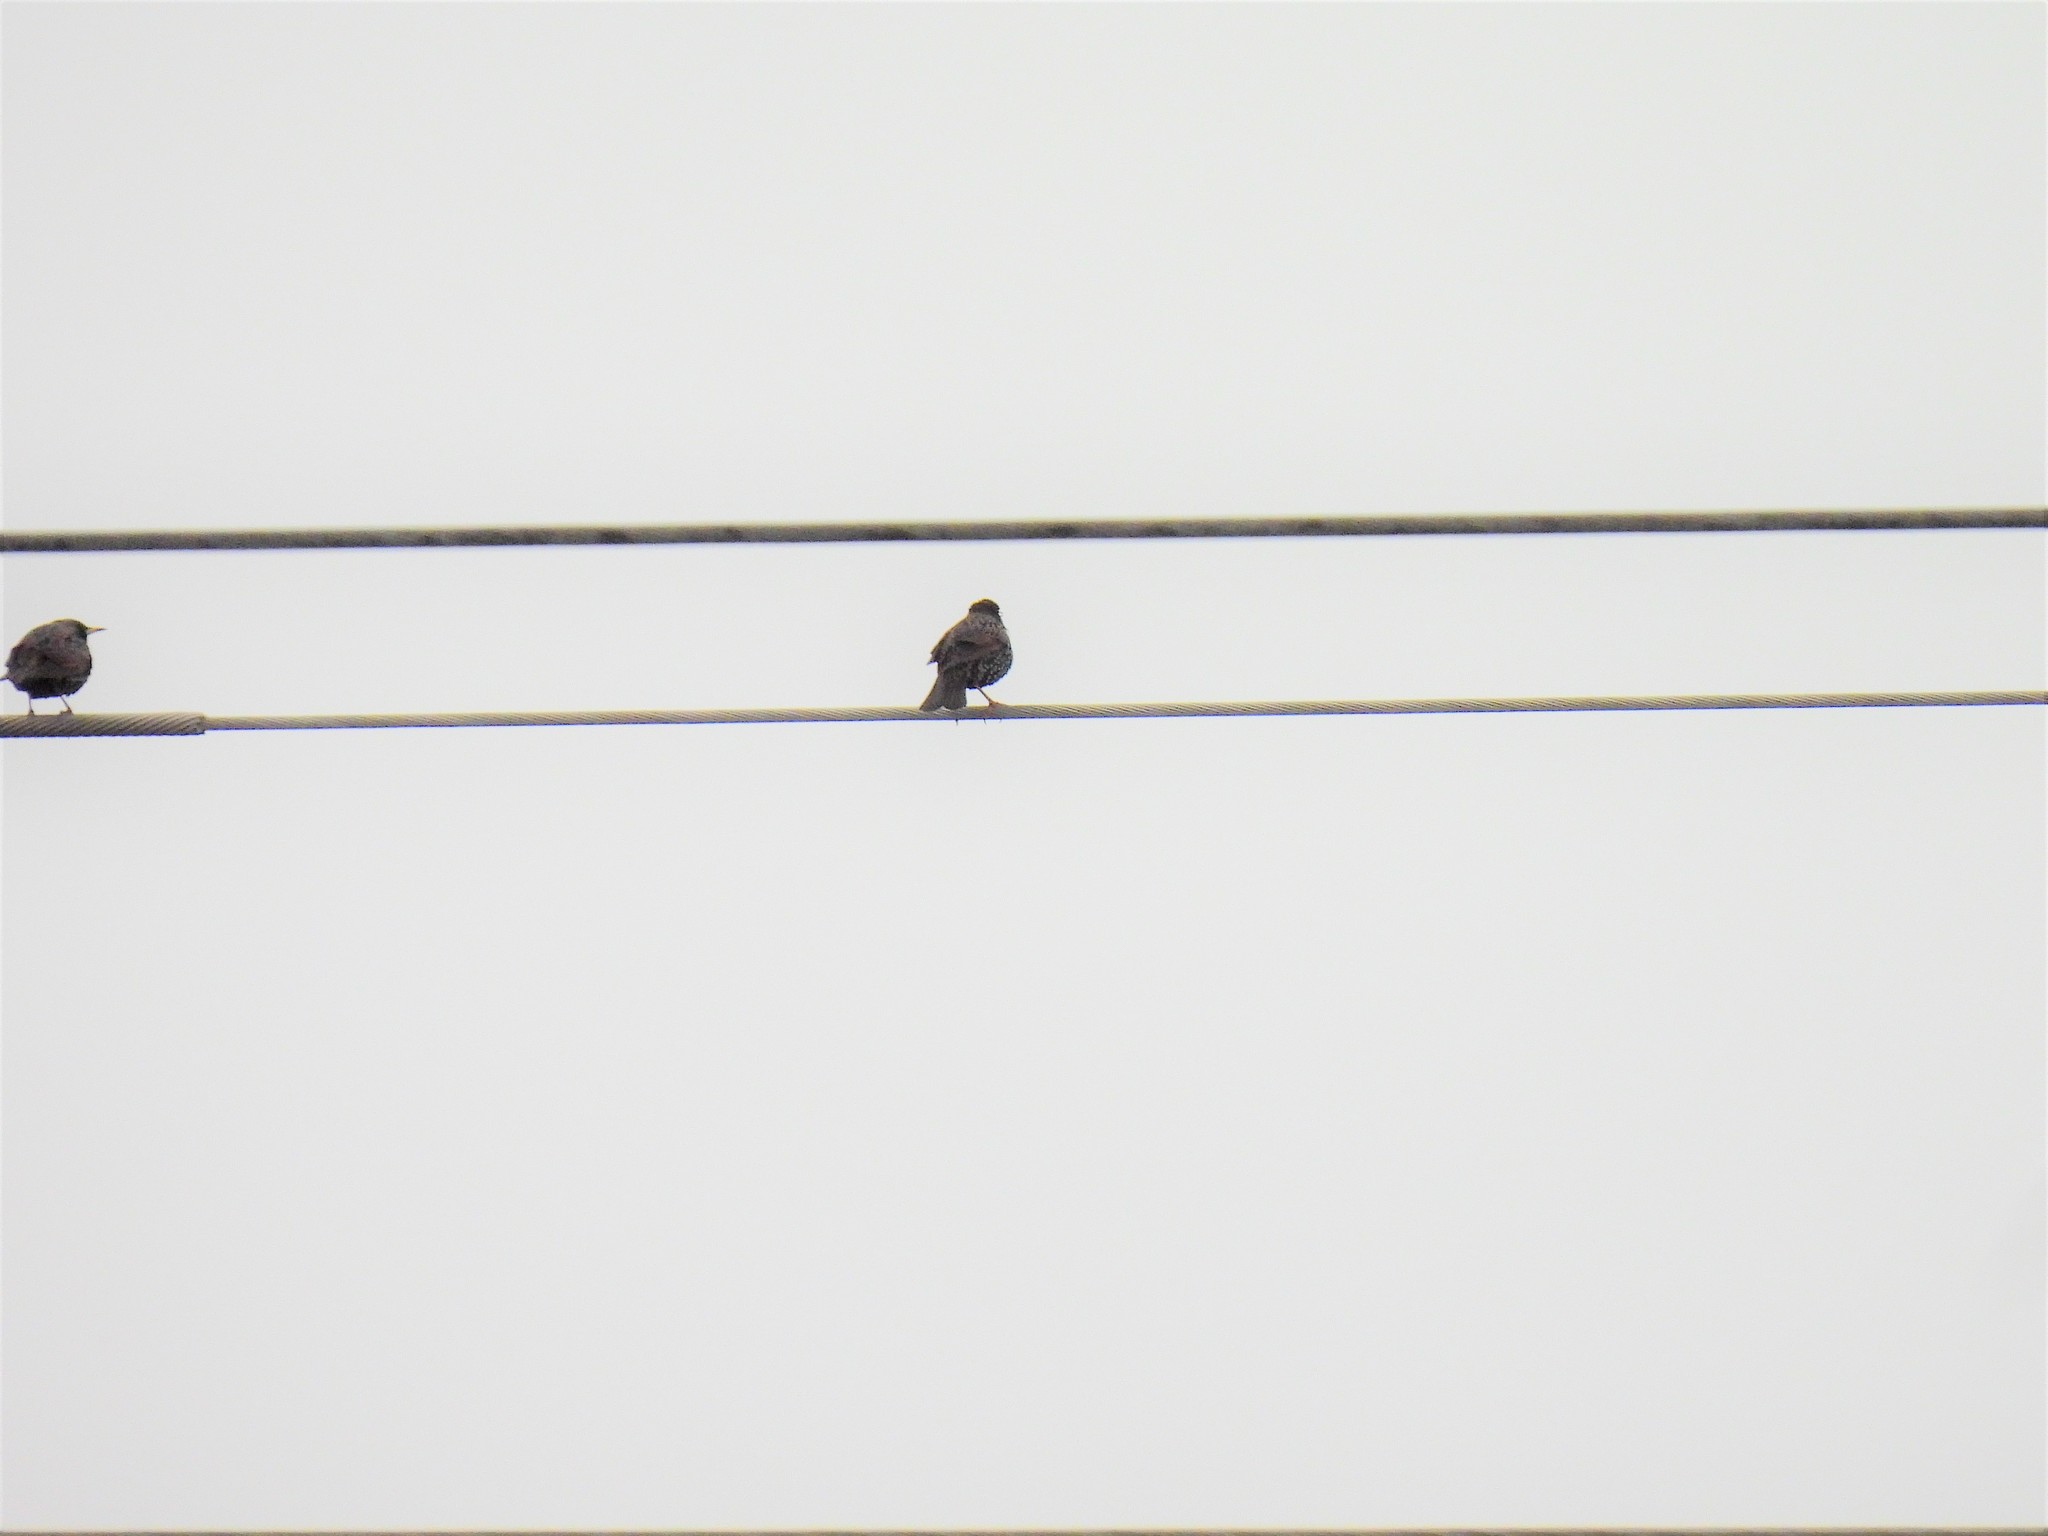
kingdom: Animalia
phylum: Chordata
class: Aves
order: Passeriformes
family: Sturnidae
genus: Sturnus
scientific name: Sturnus vulgaris
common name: Common starling
